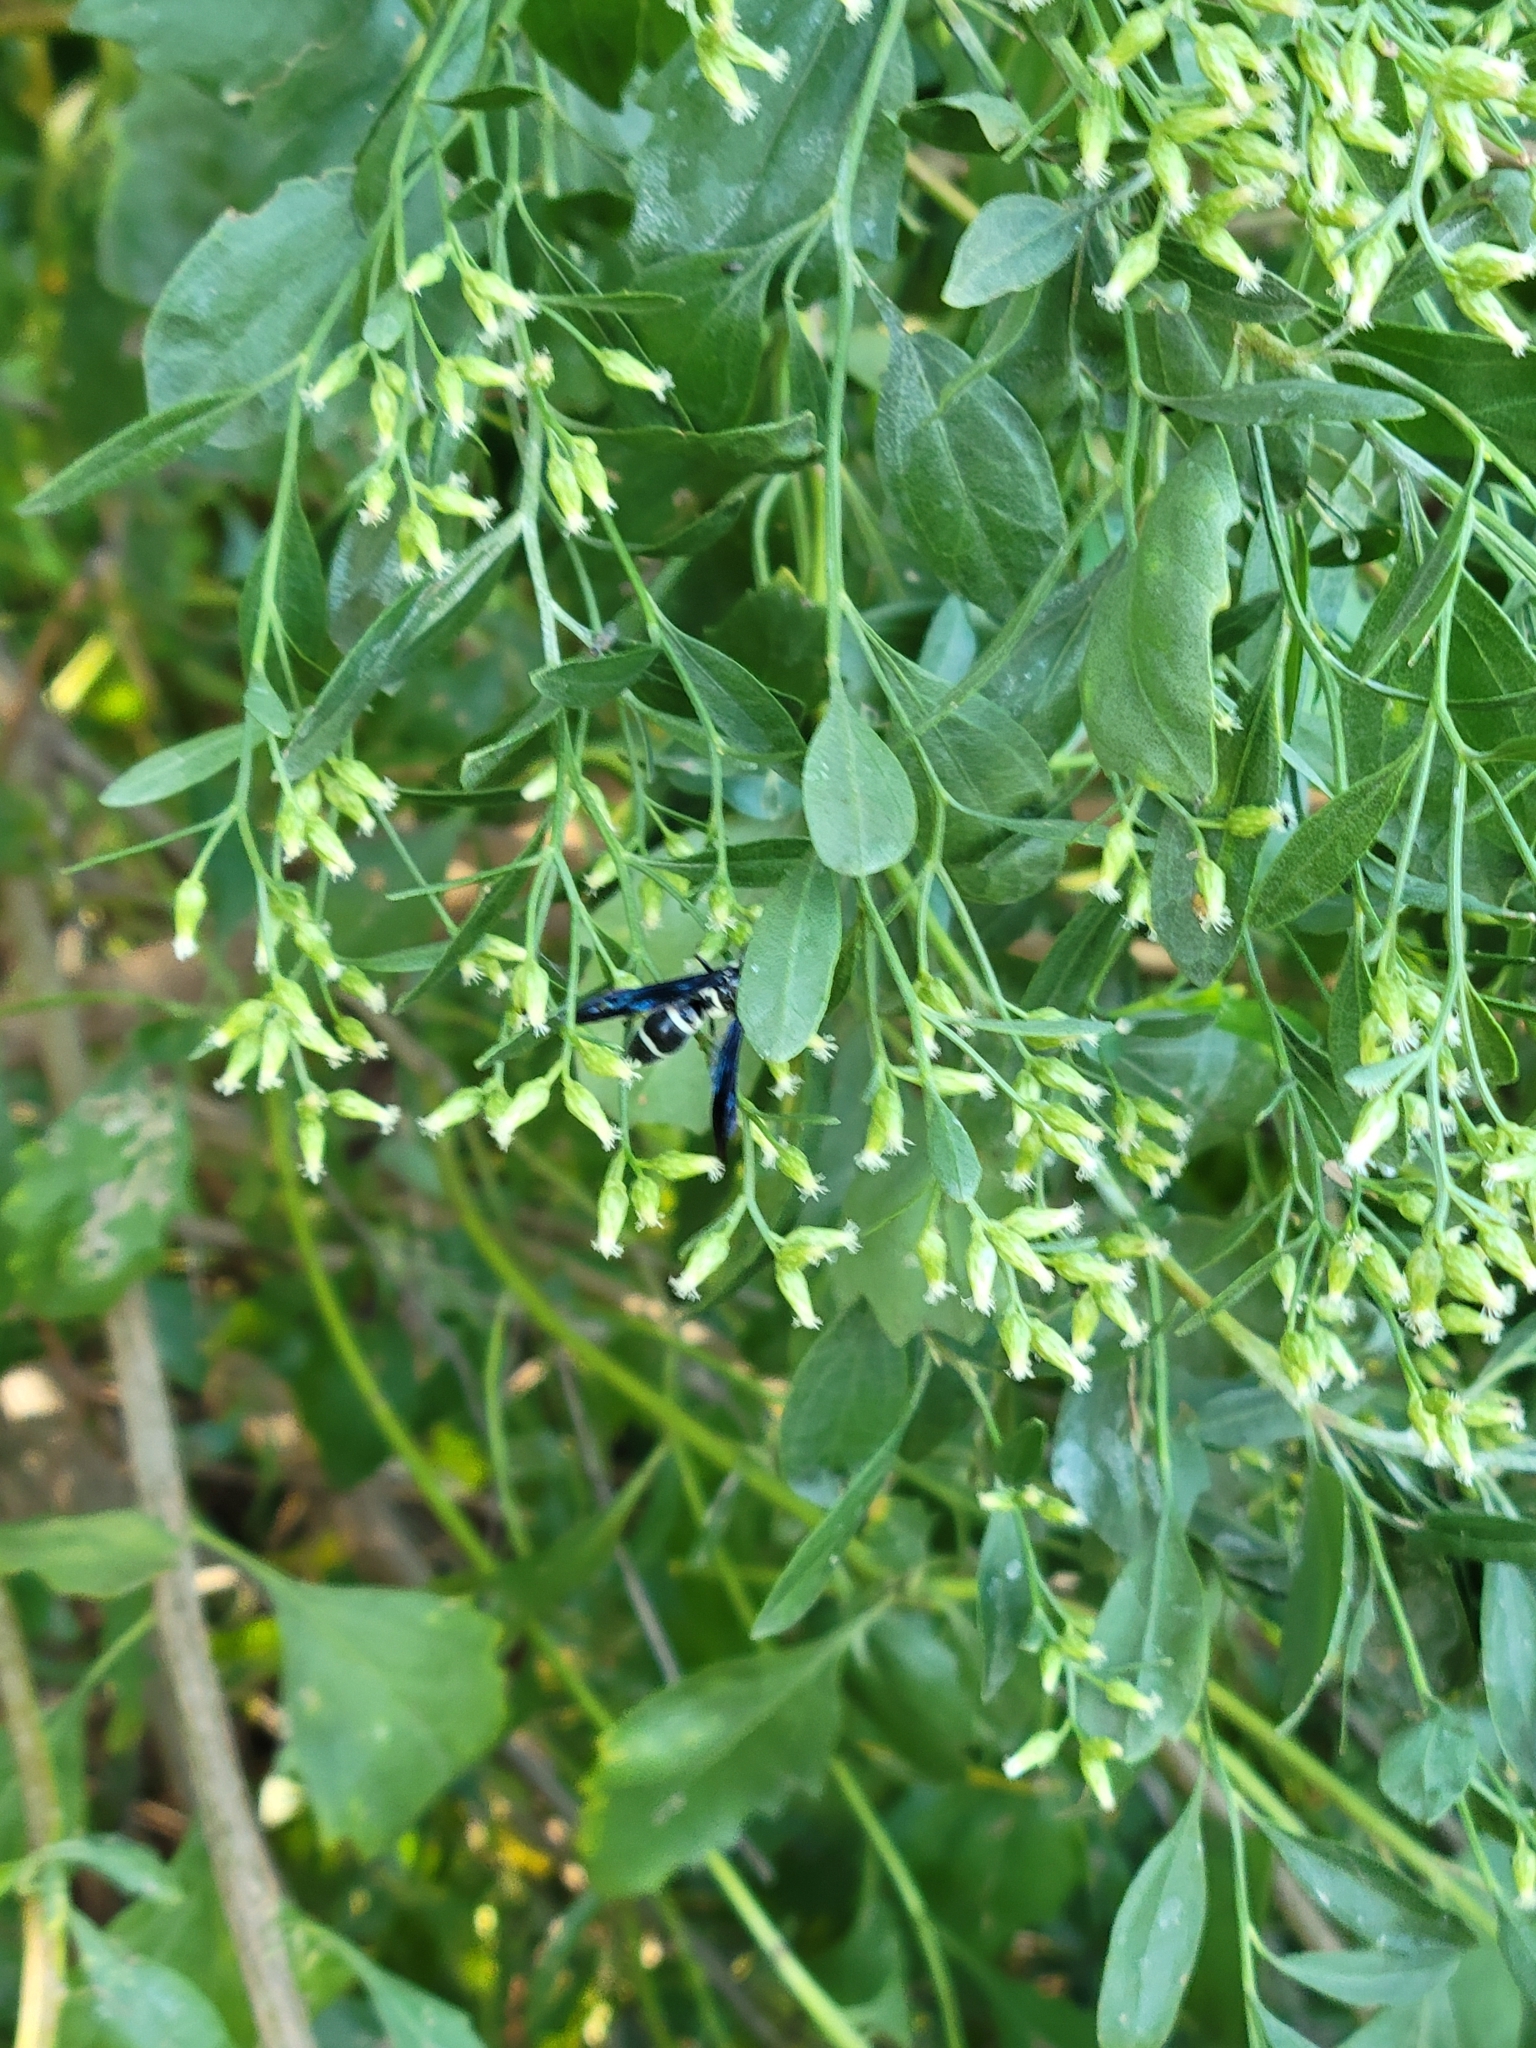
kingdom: Animalia
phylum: Arthropoda
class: Insecta
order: Hymenoptera
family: Eumenidae
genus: Pseudodynerus
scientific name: Pseudodynerus quadrisectus
